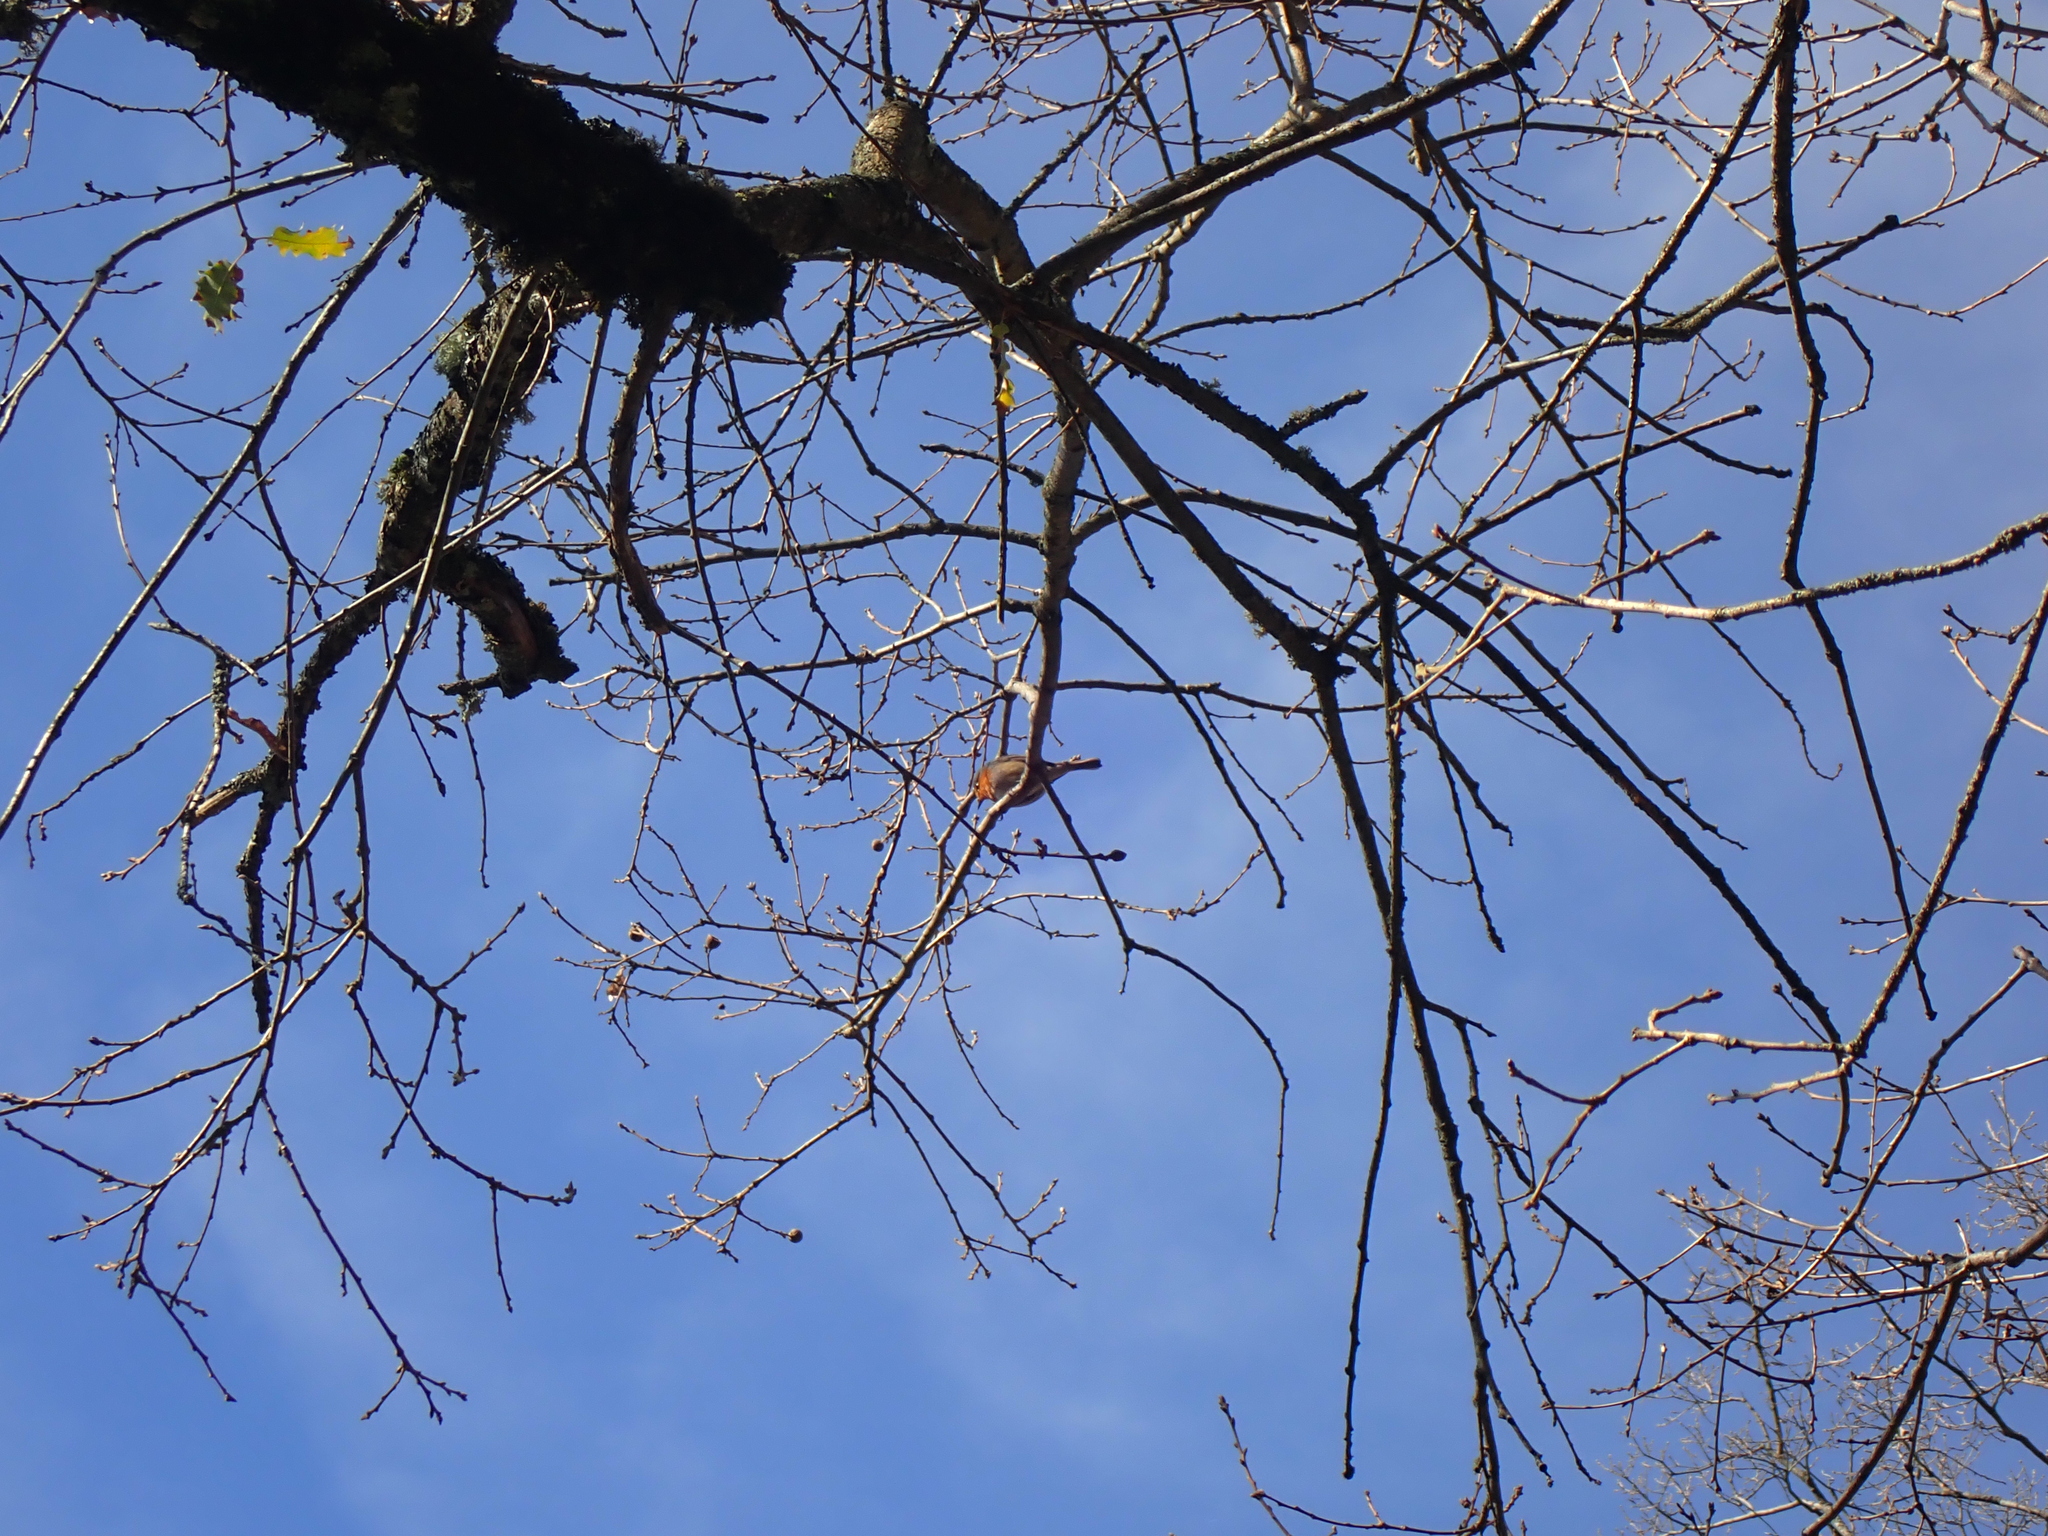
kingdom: Animalia
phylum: Chordata
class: Aves
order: Passeriformes
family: Muscicapidae
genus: Erithacus
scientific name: Erithacus rubecula
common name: European robin
